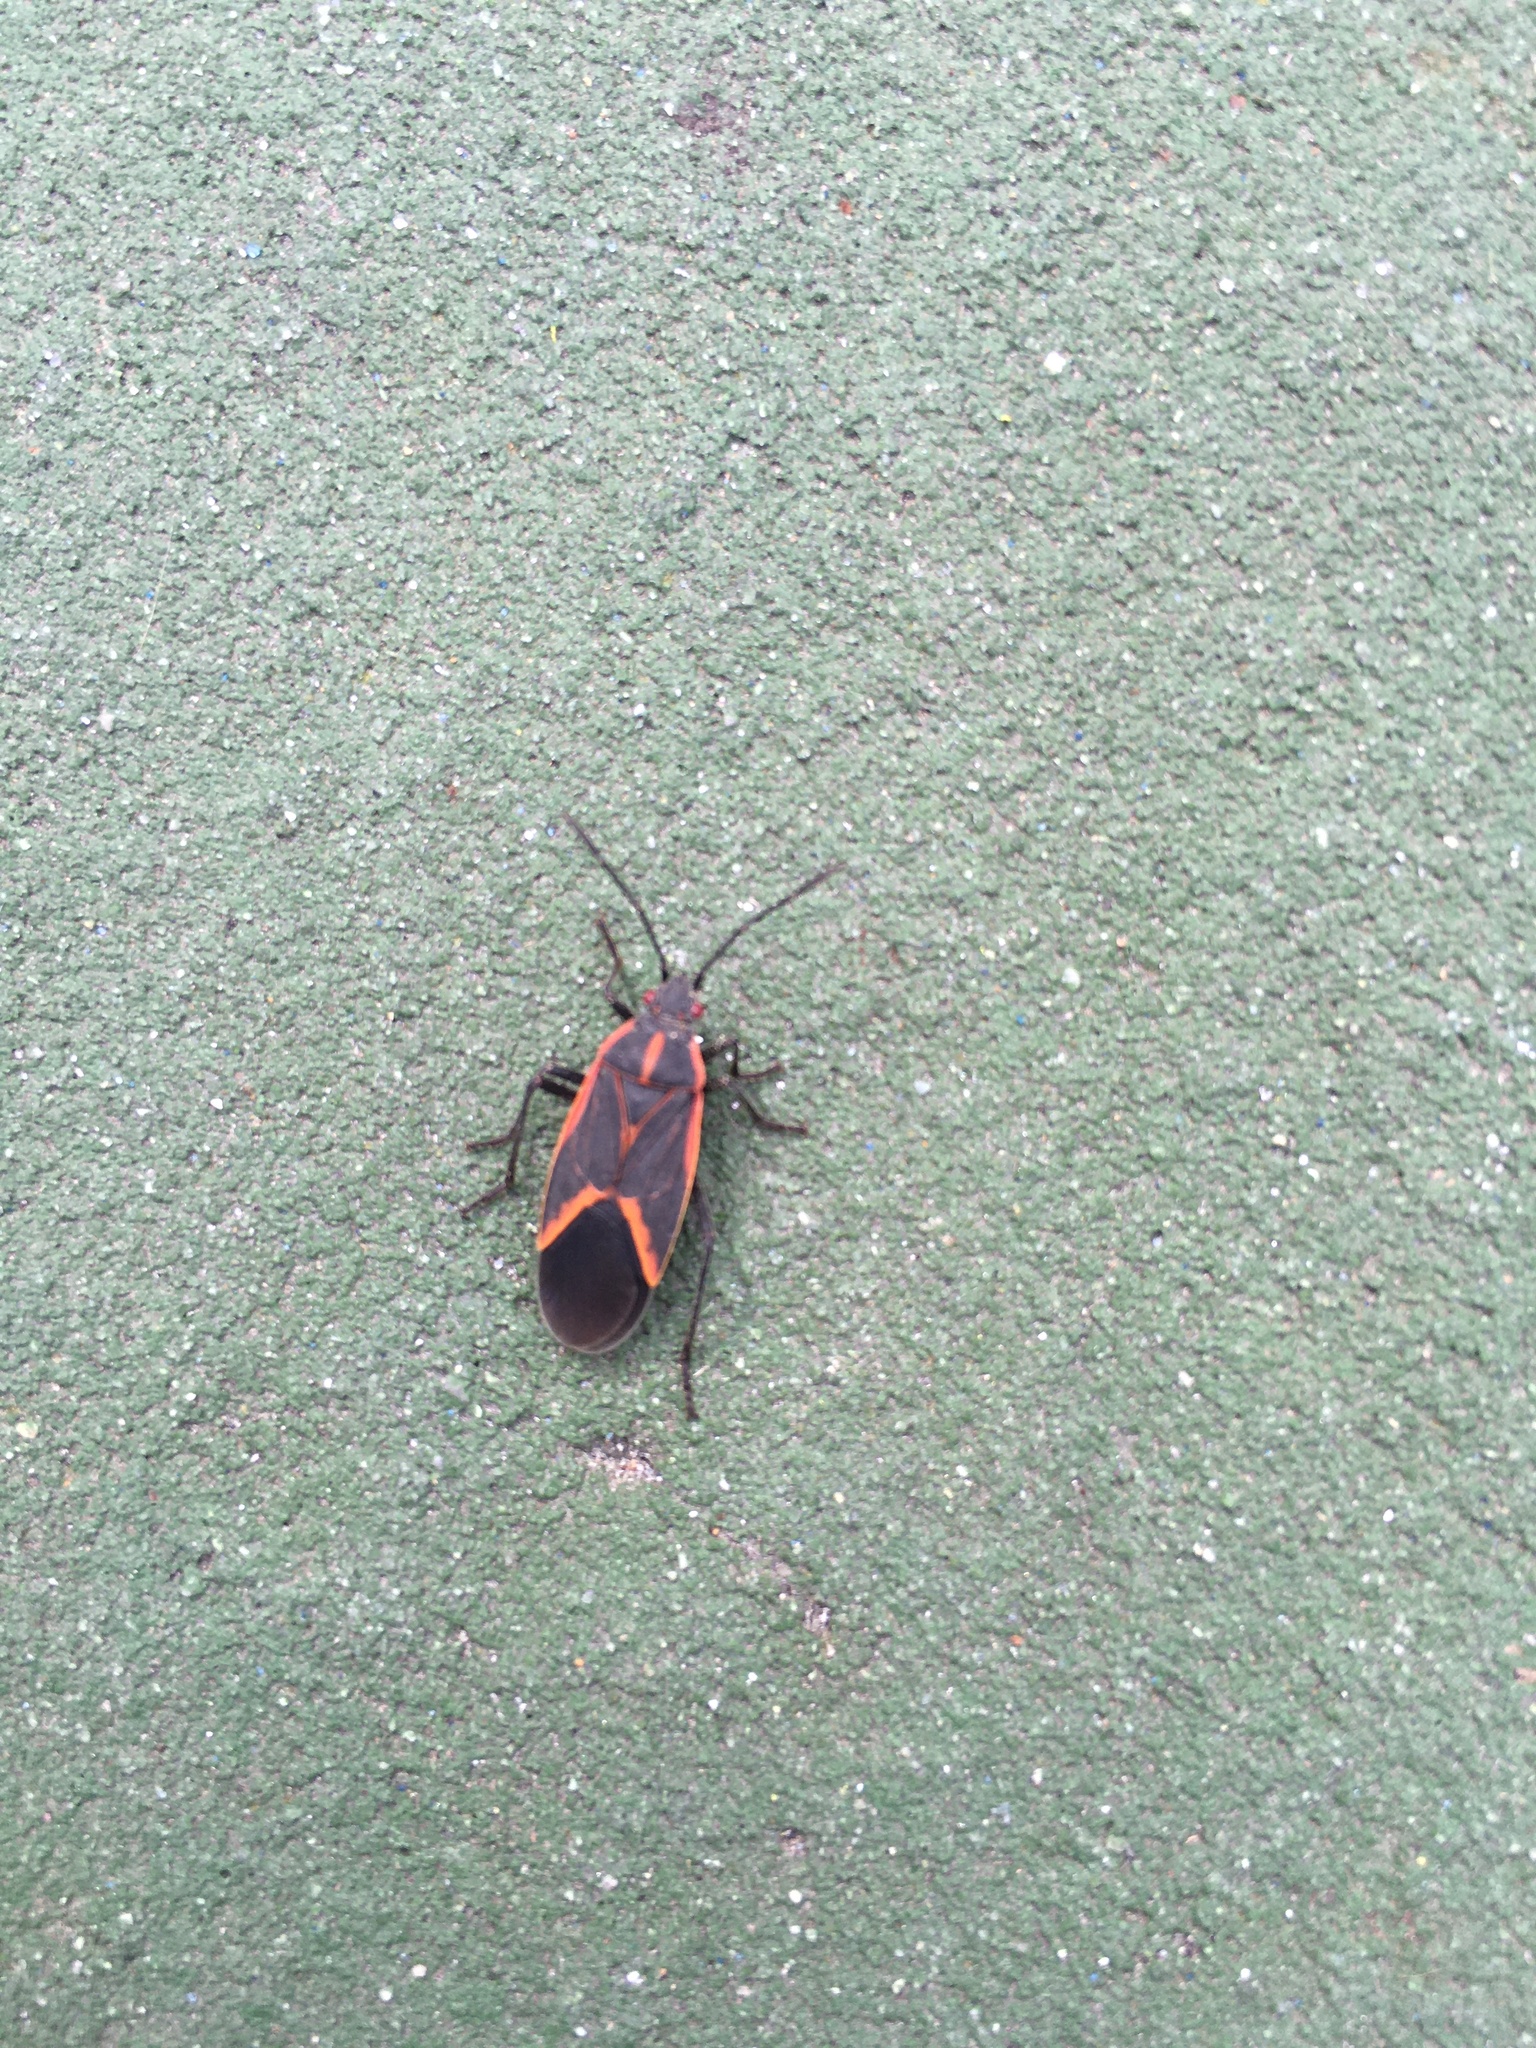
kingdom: Animalia
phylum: Arthropoda
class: Insecta
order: Hemiptera
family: Rhopalidae
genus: Boisea
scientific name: Boisea trivittata
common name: Boxelder bug
